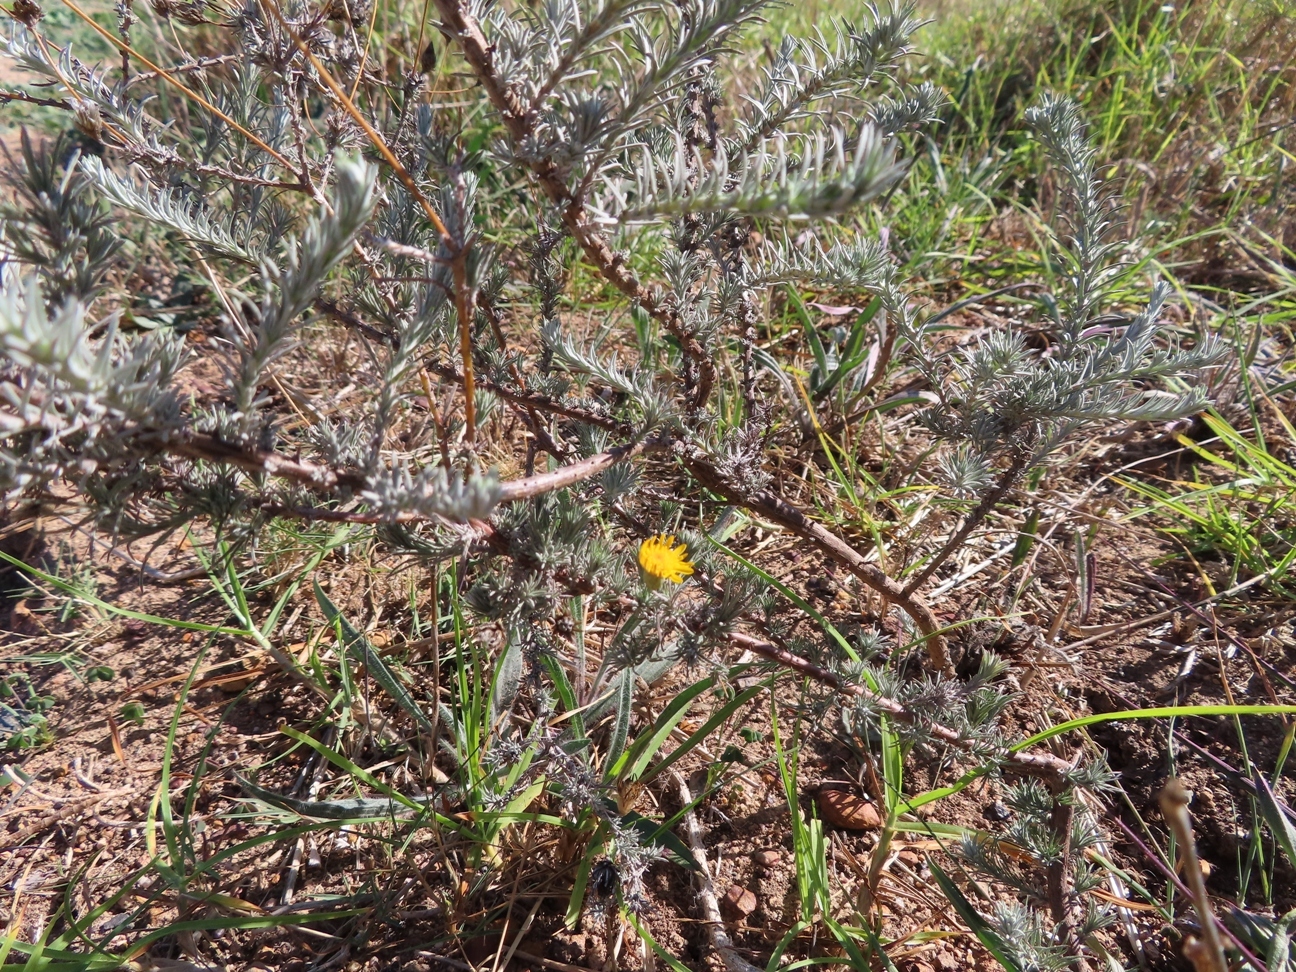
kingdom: Plantae
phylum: Tracheophyta
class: Magnoliopsida
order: Asterales
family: Asteraceae
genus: Leysera
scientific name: Leysera gnaphalodes
